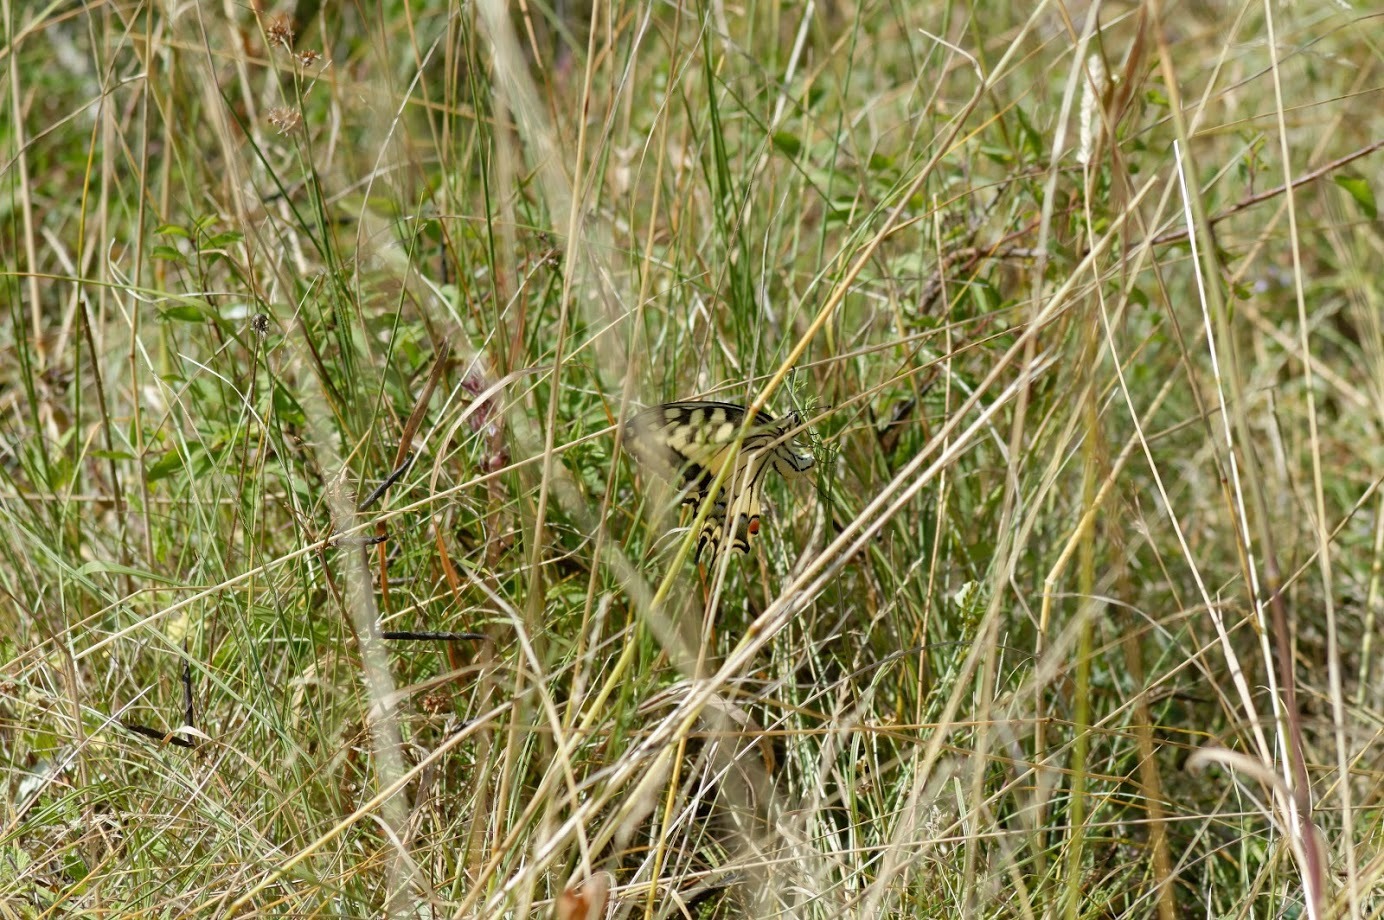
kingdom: Animalia
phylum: Arthropoda
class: Insecta
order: Lepidoptera
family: Papilionidae
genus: Papilio
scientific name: Papilio machaon
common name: Swallowtail
